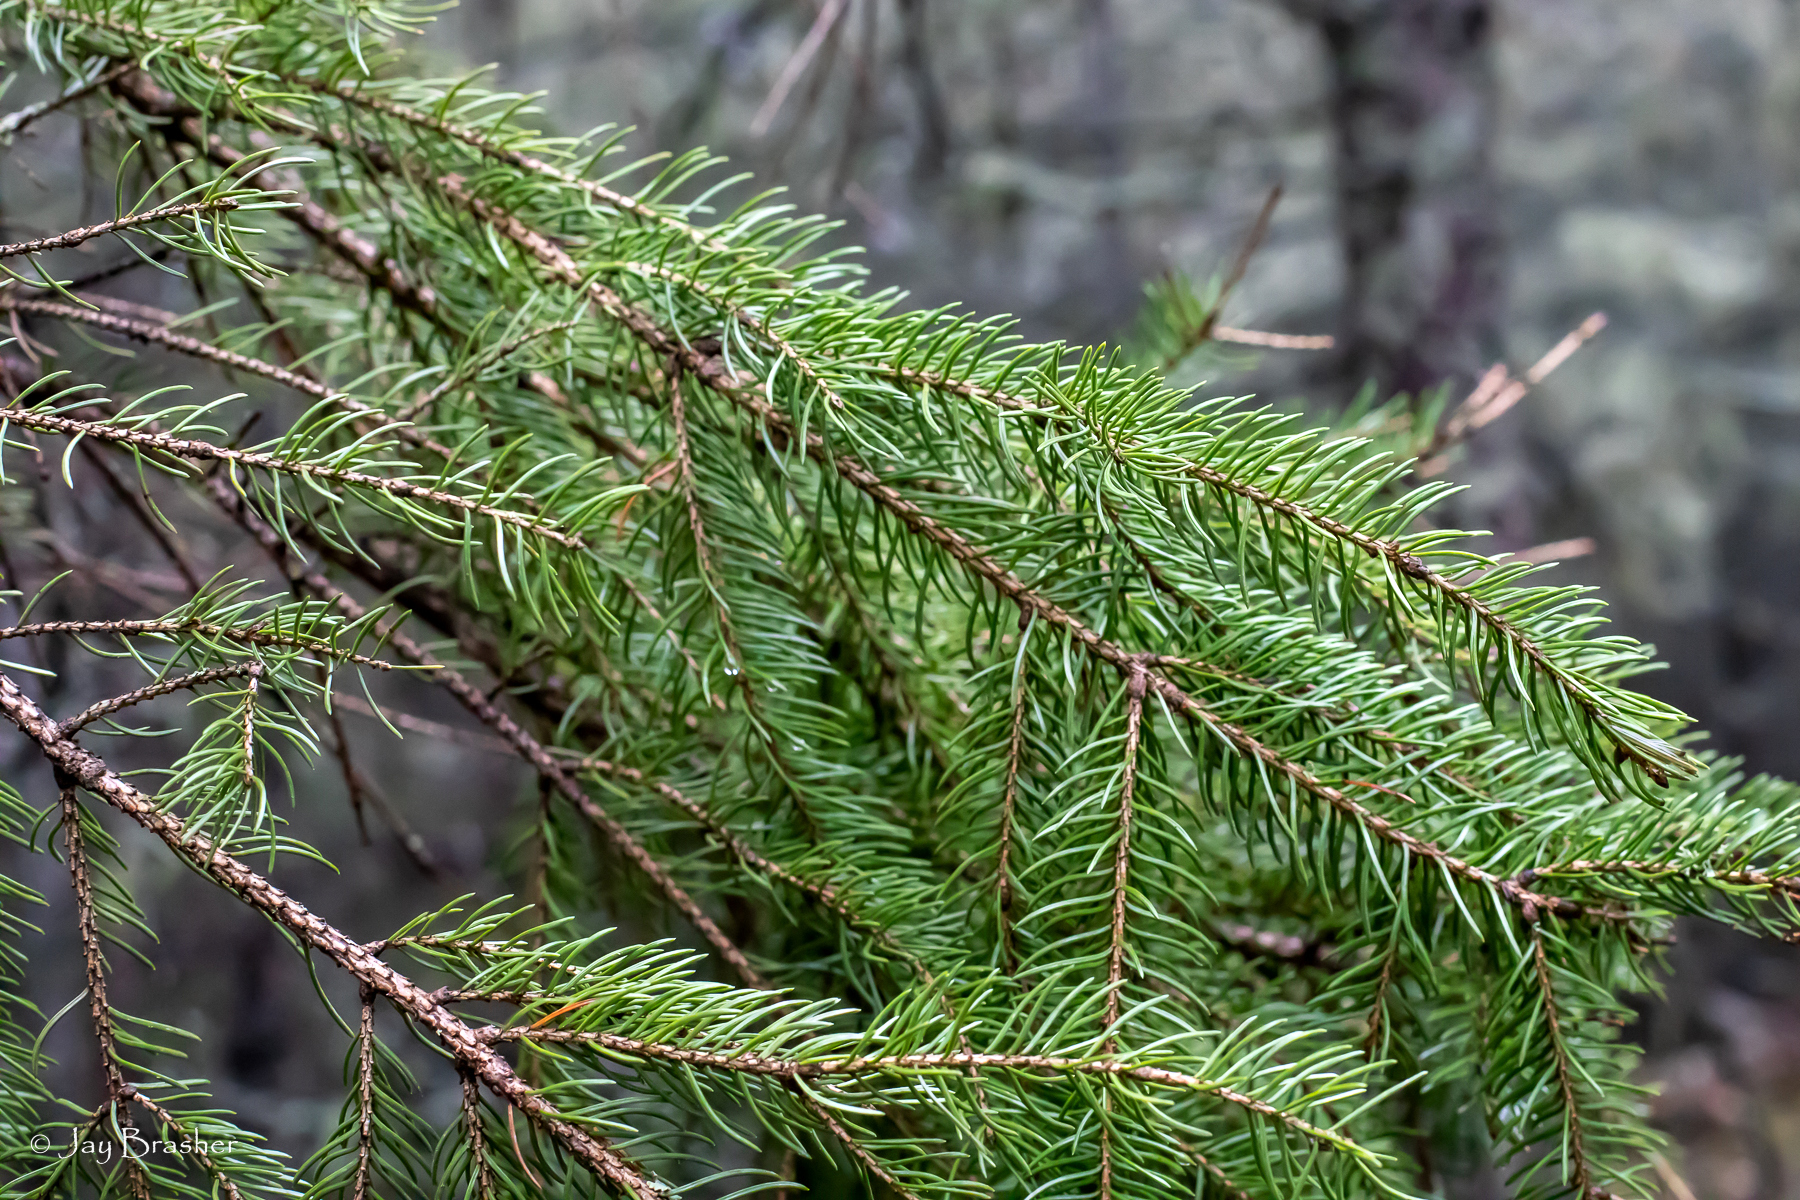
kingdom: Plantae
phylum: Tracheophyta
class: Pinopsida
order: Pinales
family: Pinaceae
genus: Picea
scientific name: Picea glauca
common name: White spruce
